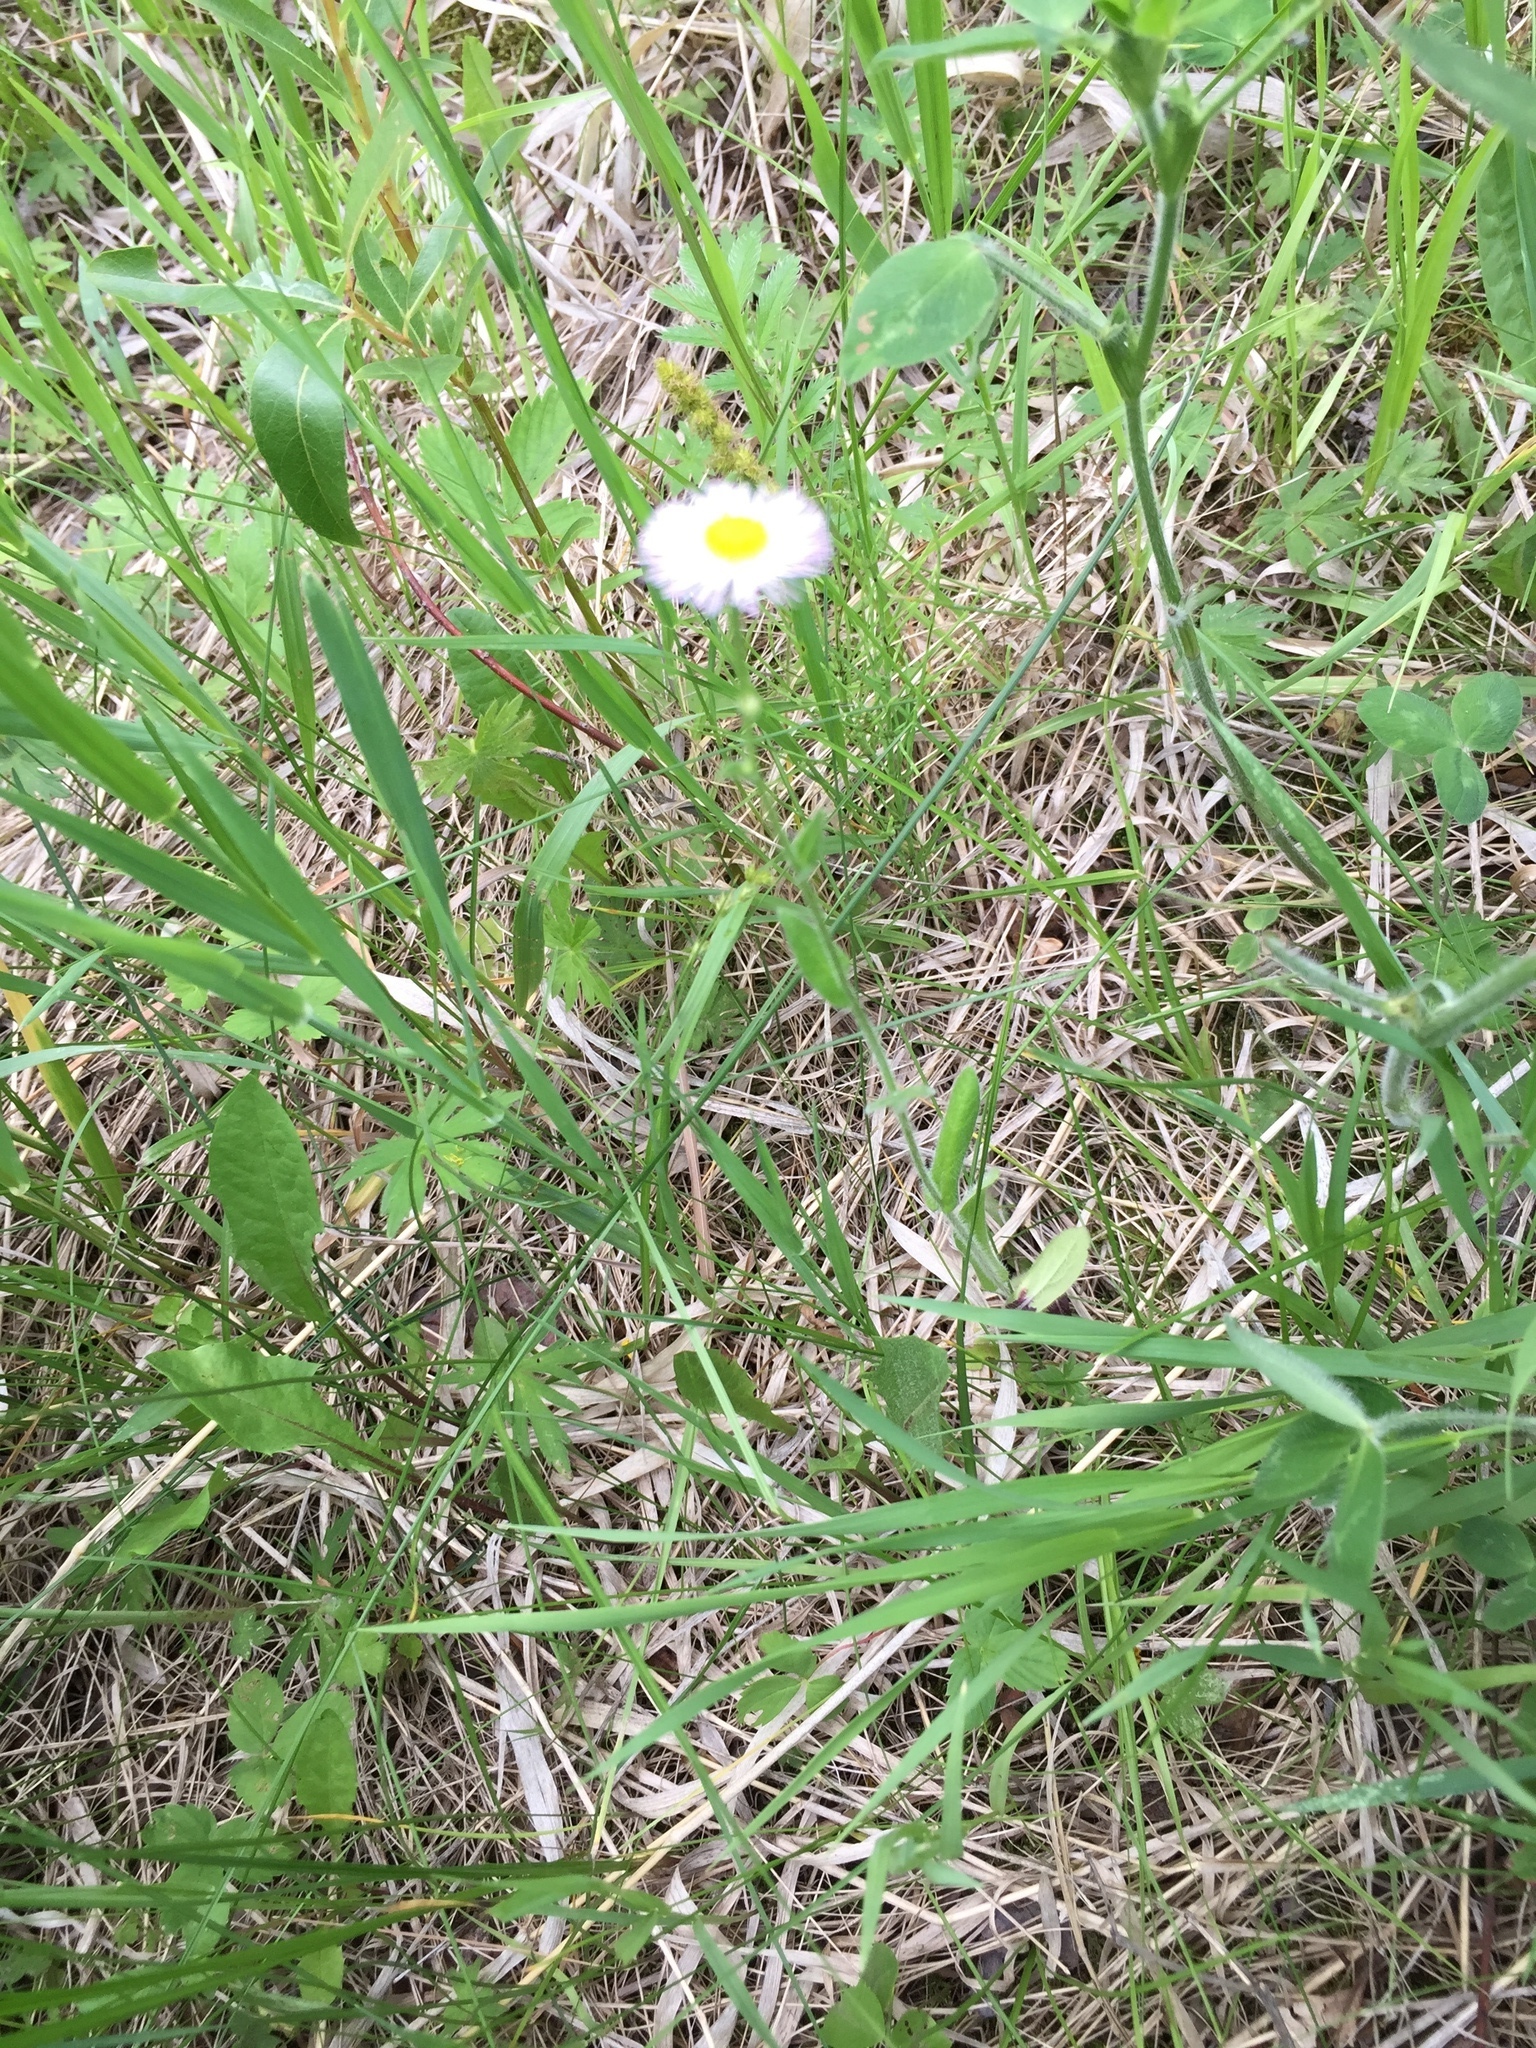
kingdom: Plantae
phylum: Tracheophyta
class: Magnoliopsida
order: Asterales
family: Asteraceae
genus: Erigeron
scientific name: Erigeron philadelphicus
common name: Robin's-plantain
